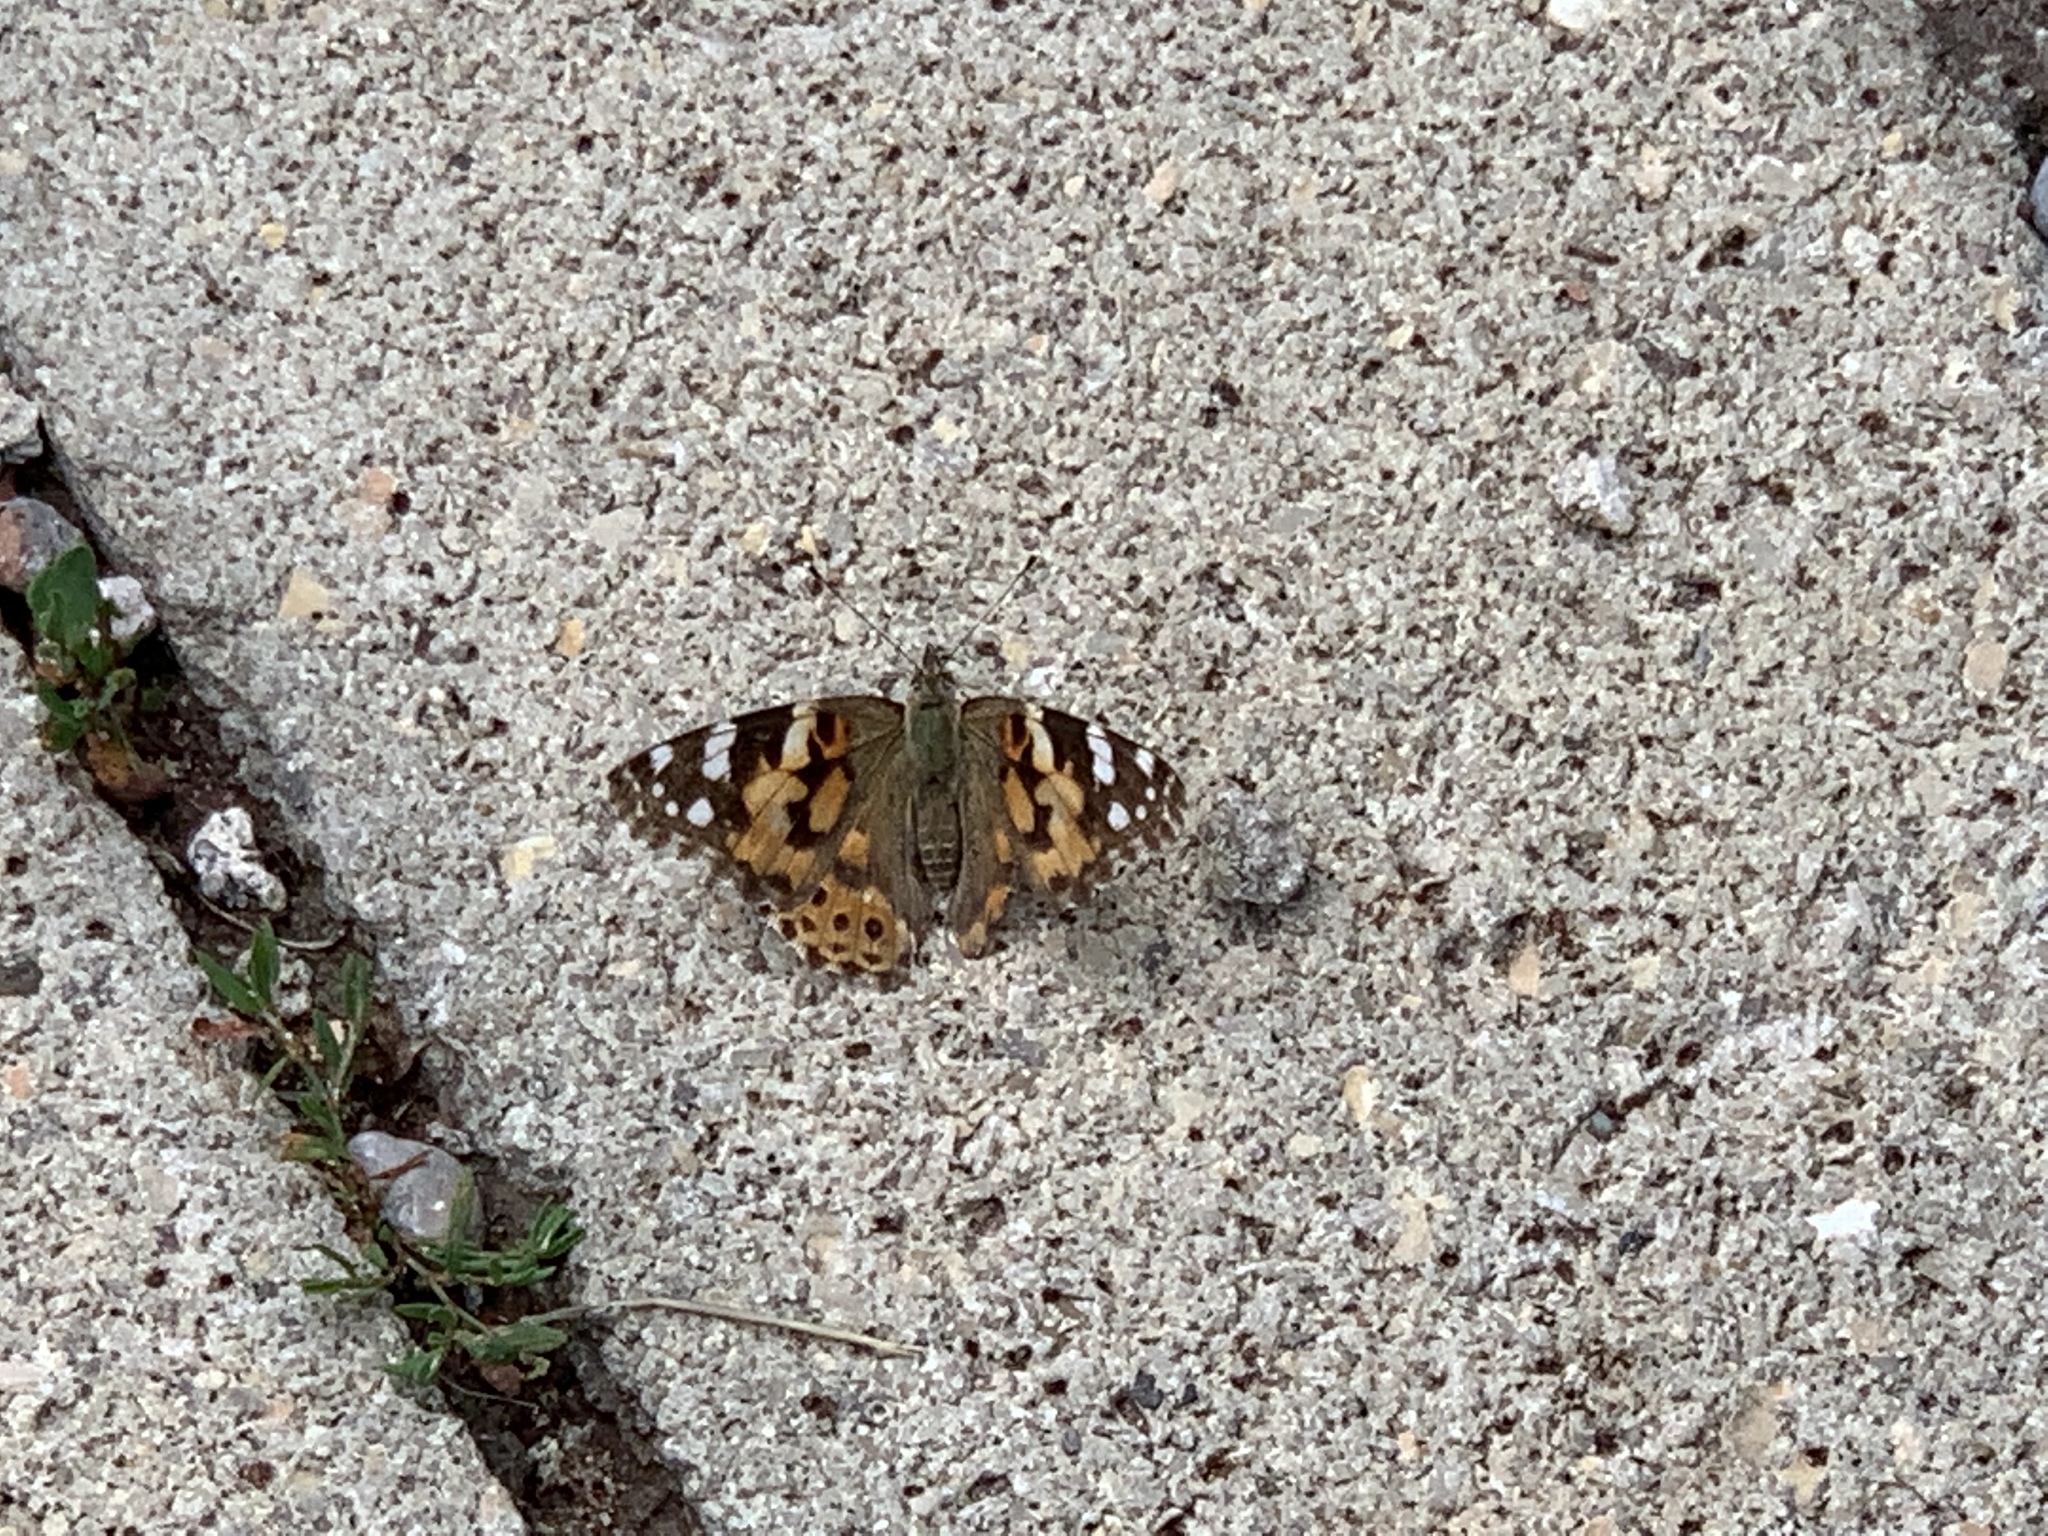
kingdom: Animalia
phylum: Arthropoda
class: Insecta
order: Lepidoptera
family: Nymphalidae
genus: Vanessa
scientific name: Vanessa cardui
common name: Painted lady
